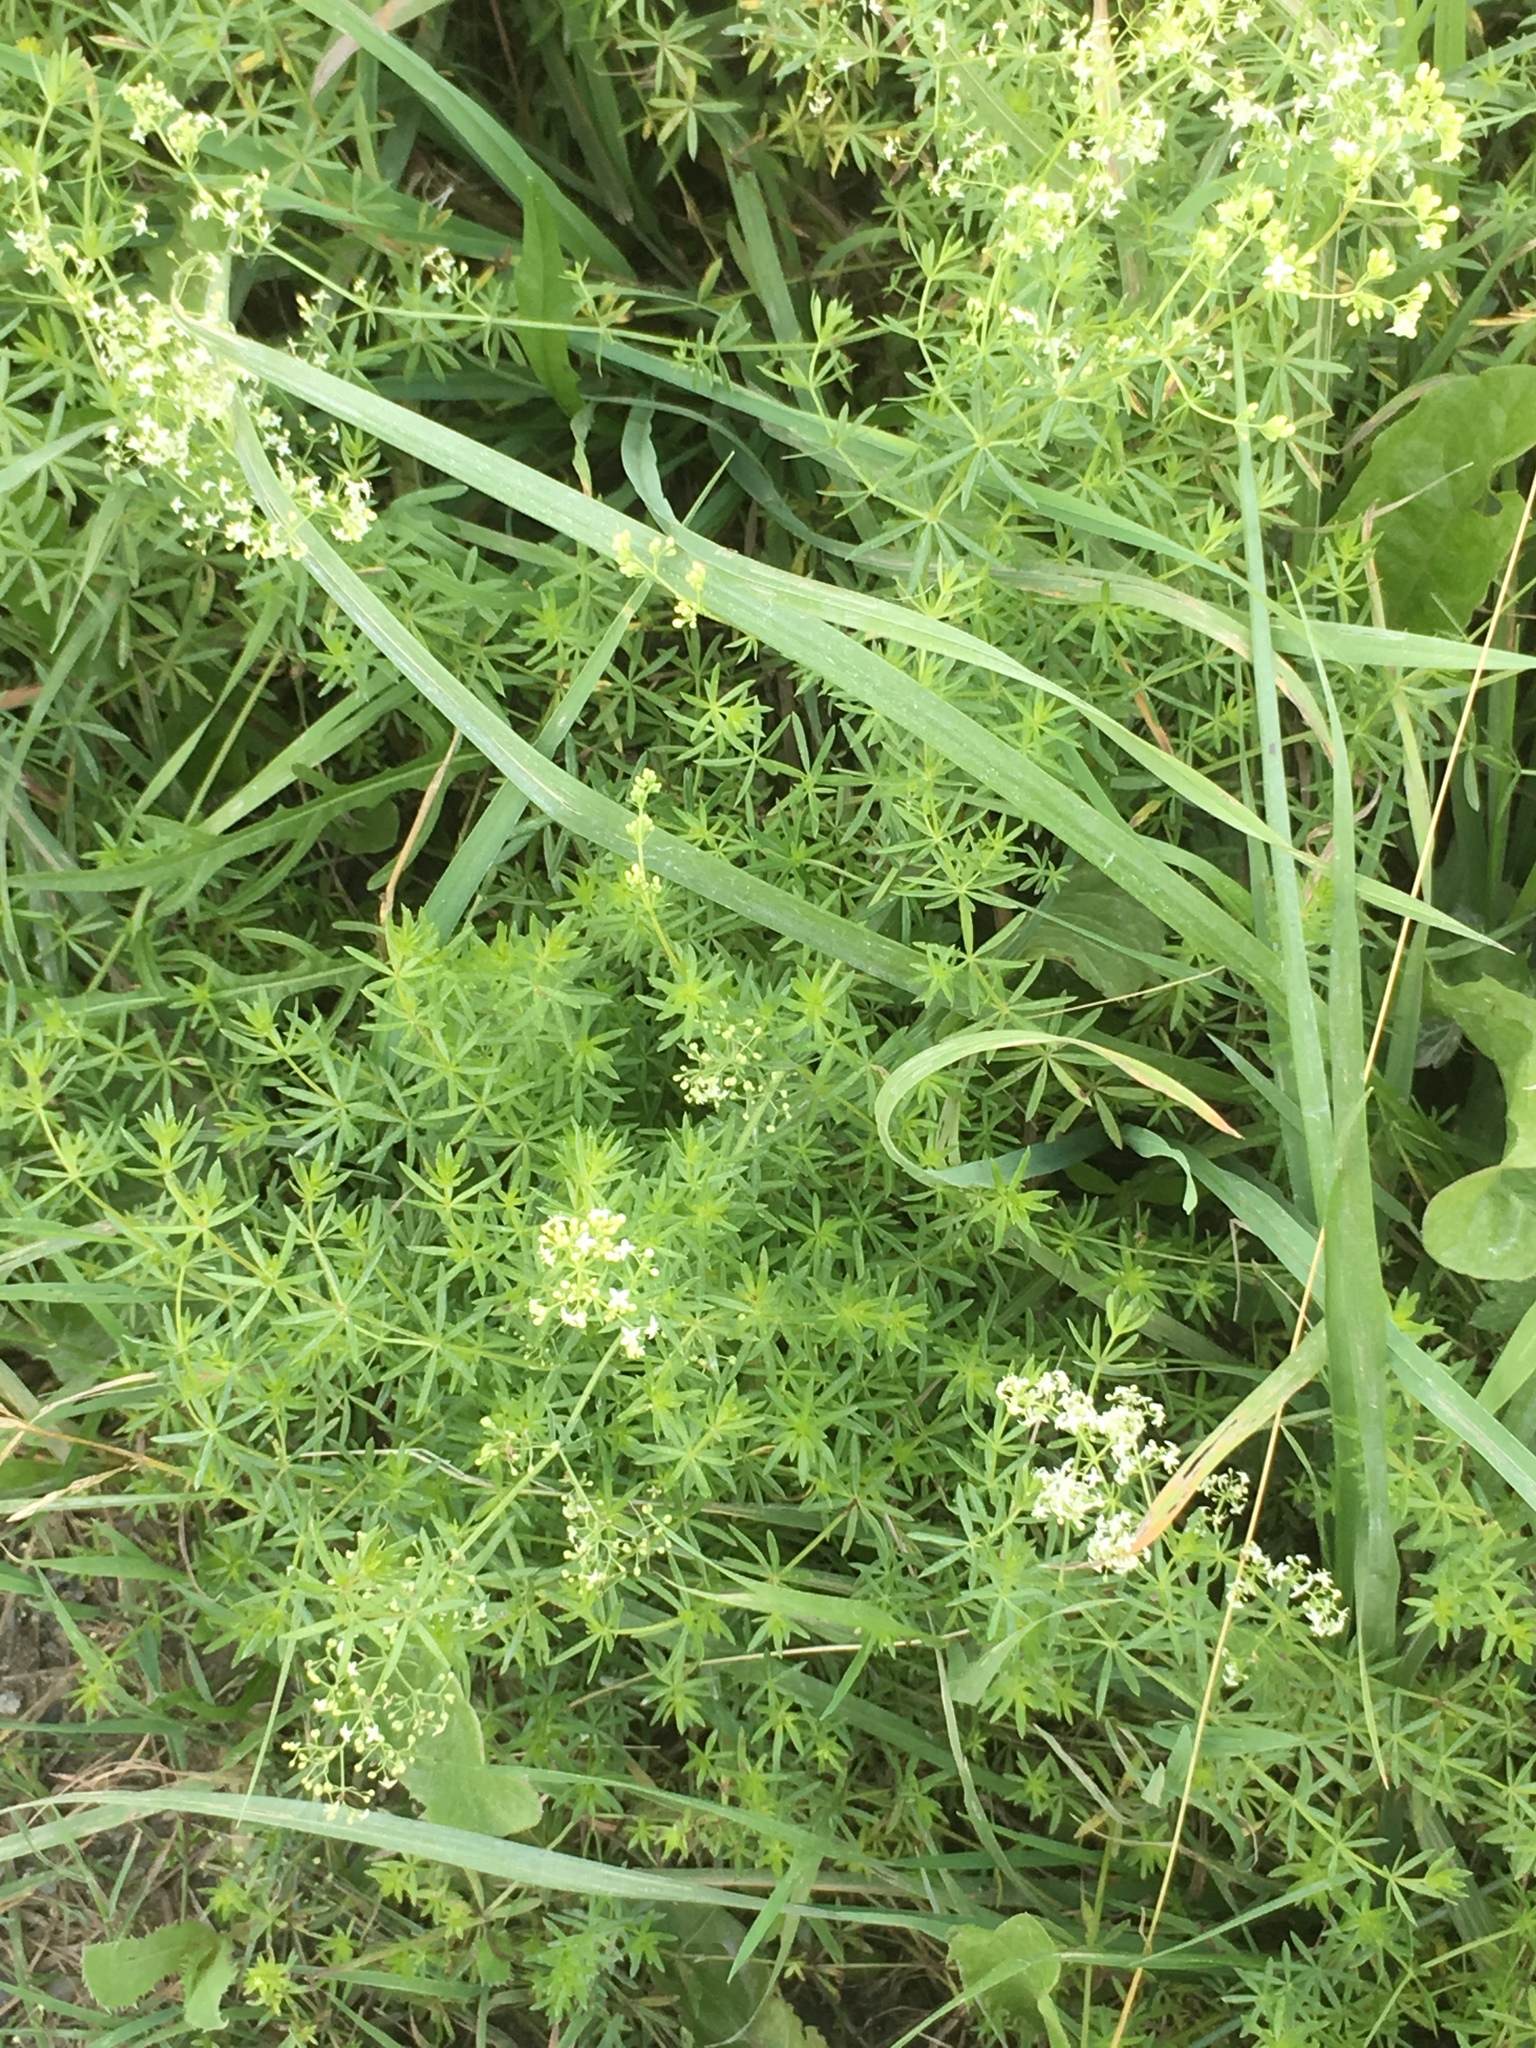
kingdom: Plantae
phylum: Tracheophyta
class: Magnoliopsida
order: Gentianales
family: Rubiaceae
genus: Galium
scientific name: Galium mollugo
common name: Hedge bedstraw
